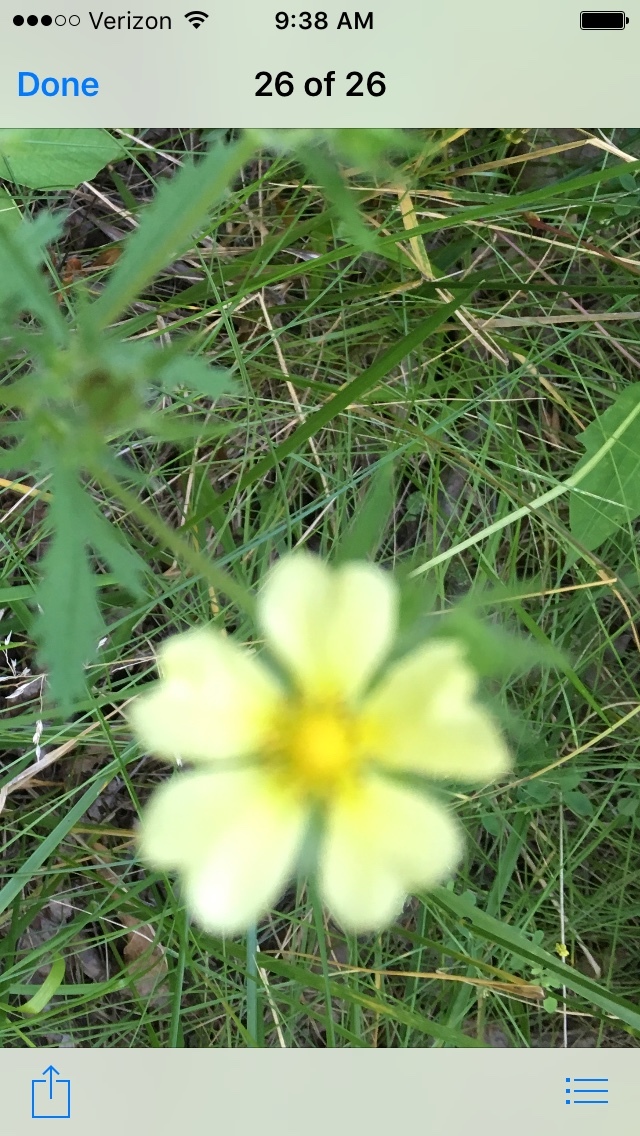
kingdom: Plantae
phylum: Tracheophyta
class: Magnoliopsida
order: Rosales
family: Rosaceae
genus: Potentilla
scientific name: Potentilla recta
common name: Sulphur cinquefoil
